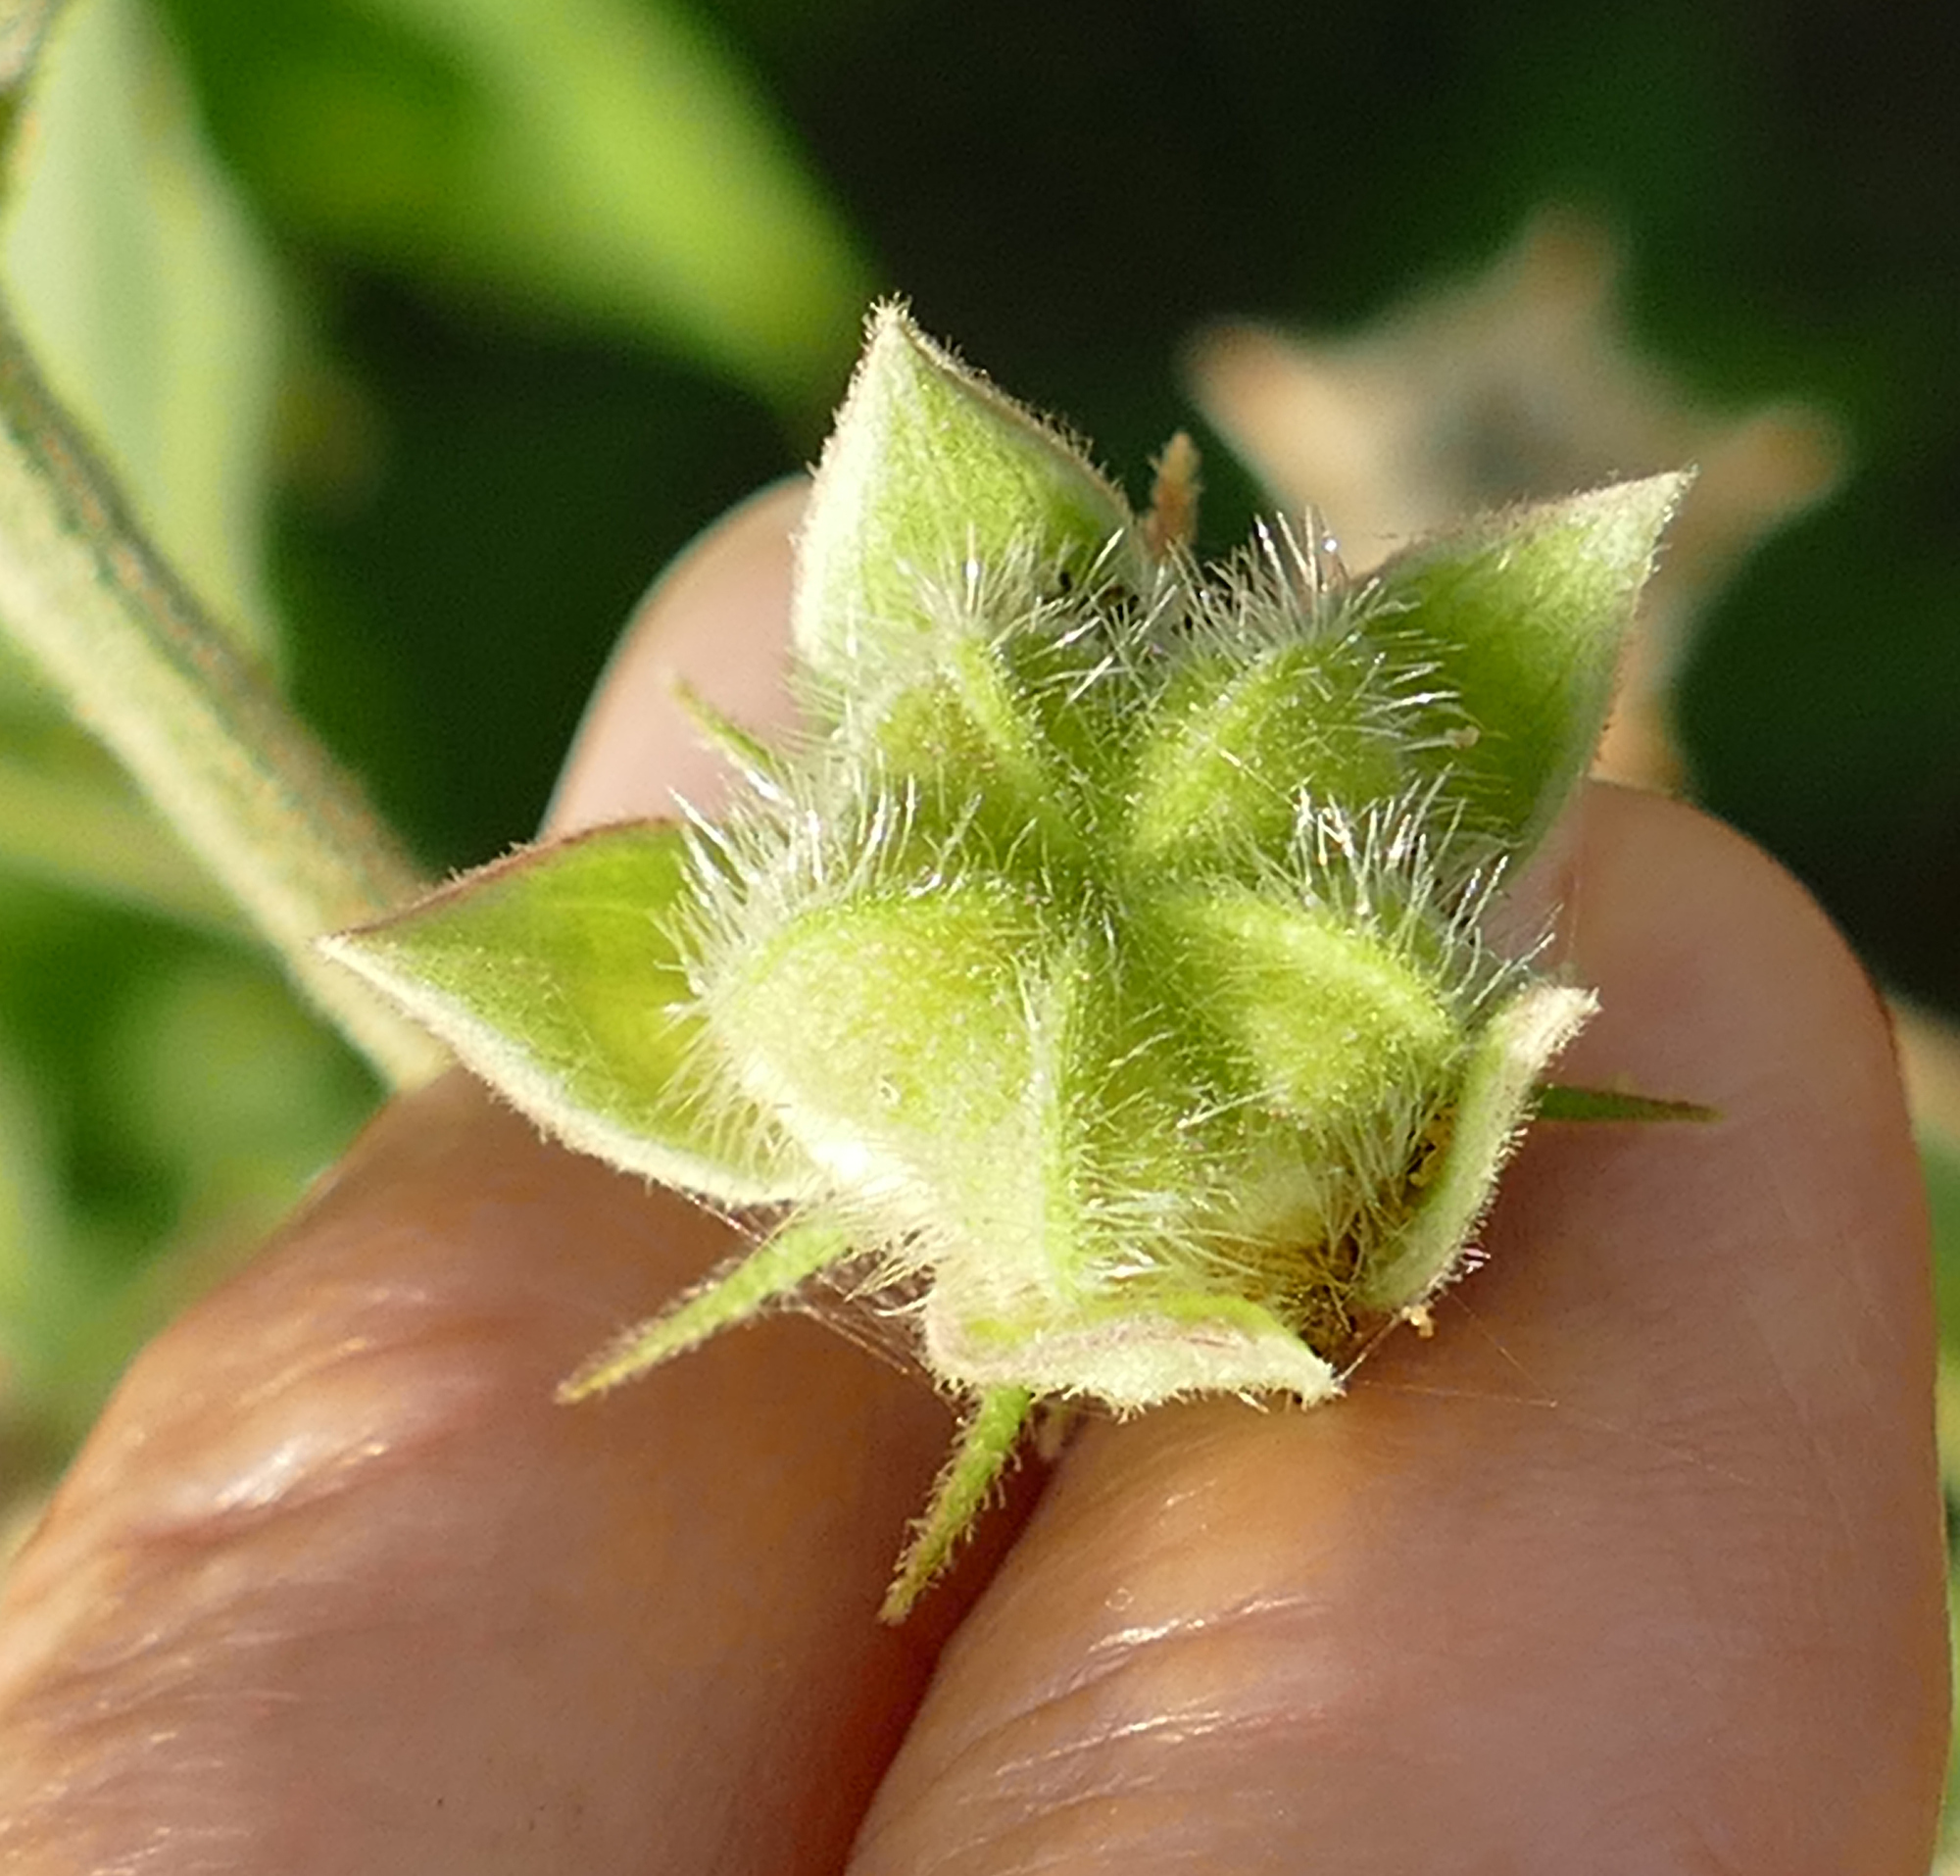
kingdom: Plantae
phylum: Tracheophyta
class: Magnoliopsida
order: Malvales
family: Malvaceae
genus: Kosteletzkya
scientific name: Kosteletzkya pentacarpos
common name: Virginia saltmarsh mallow
